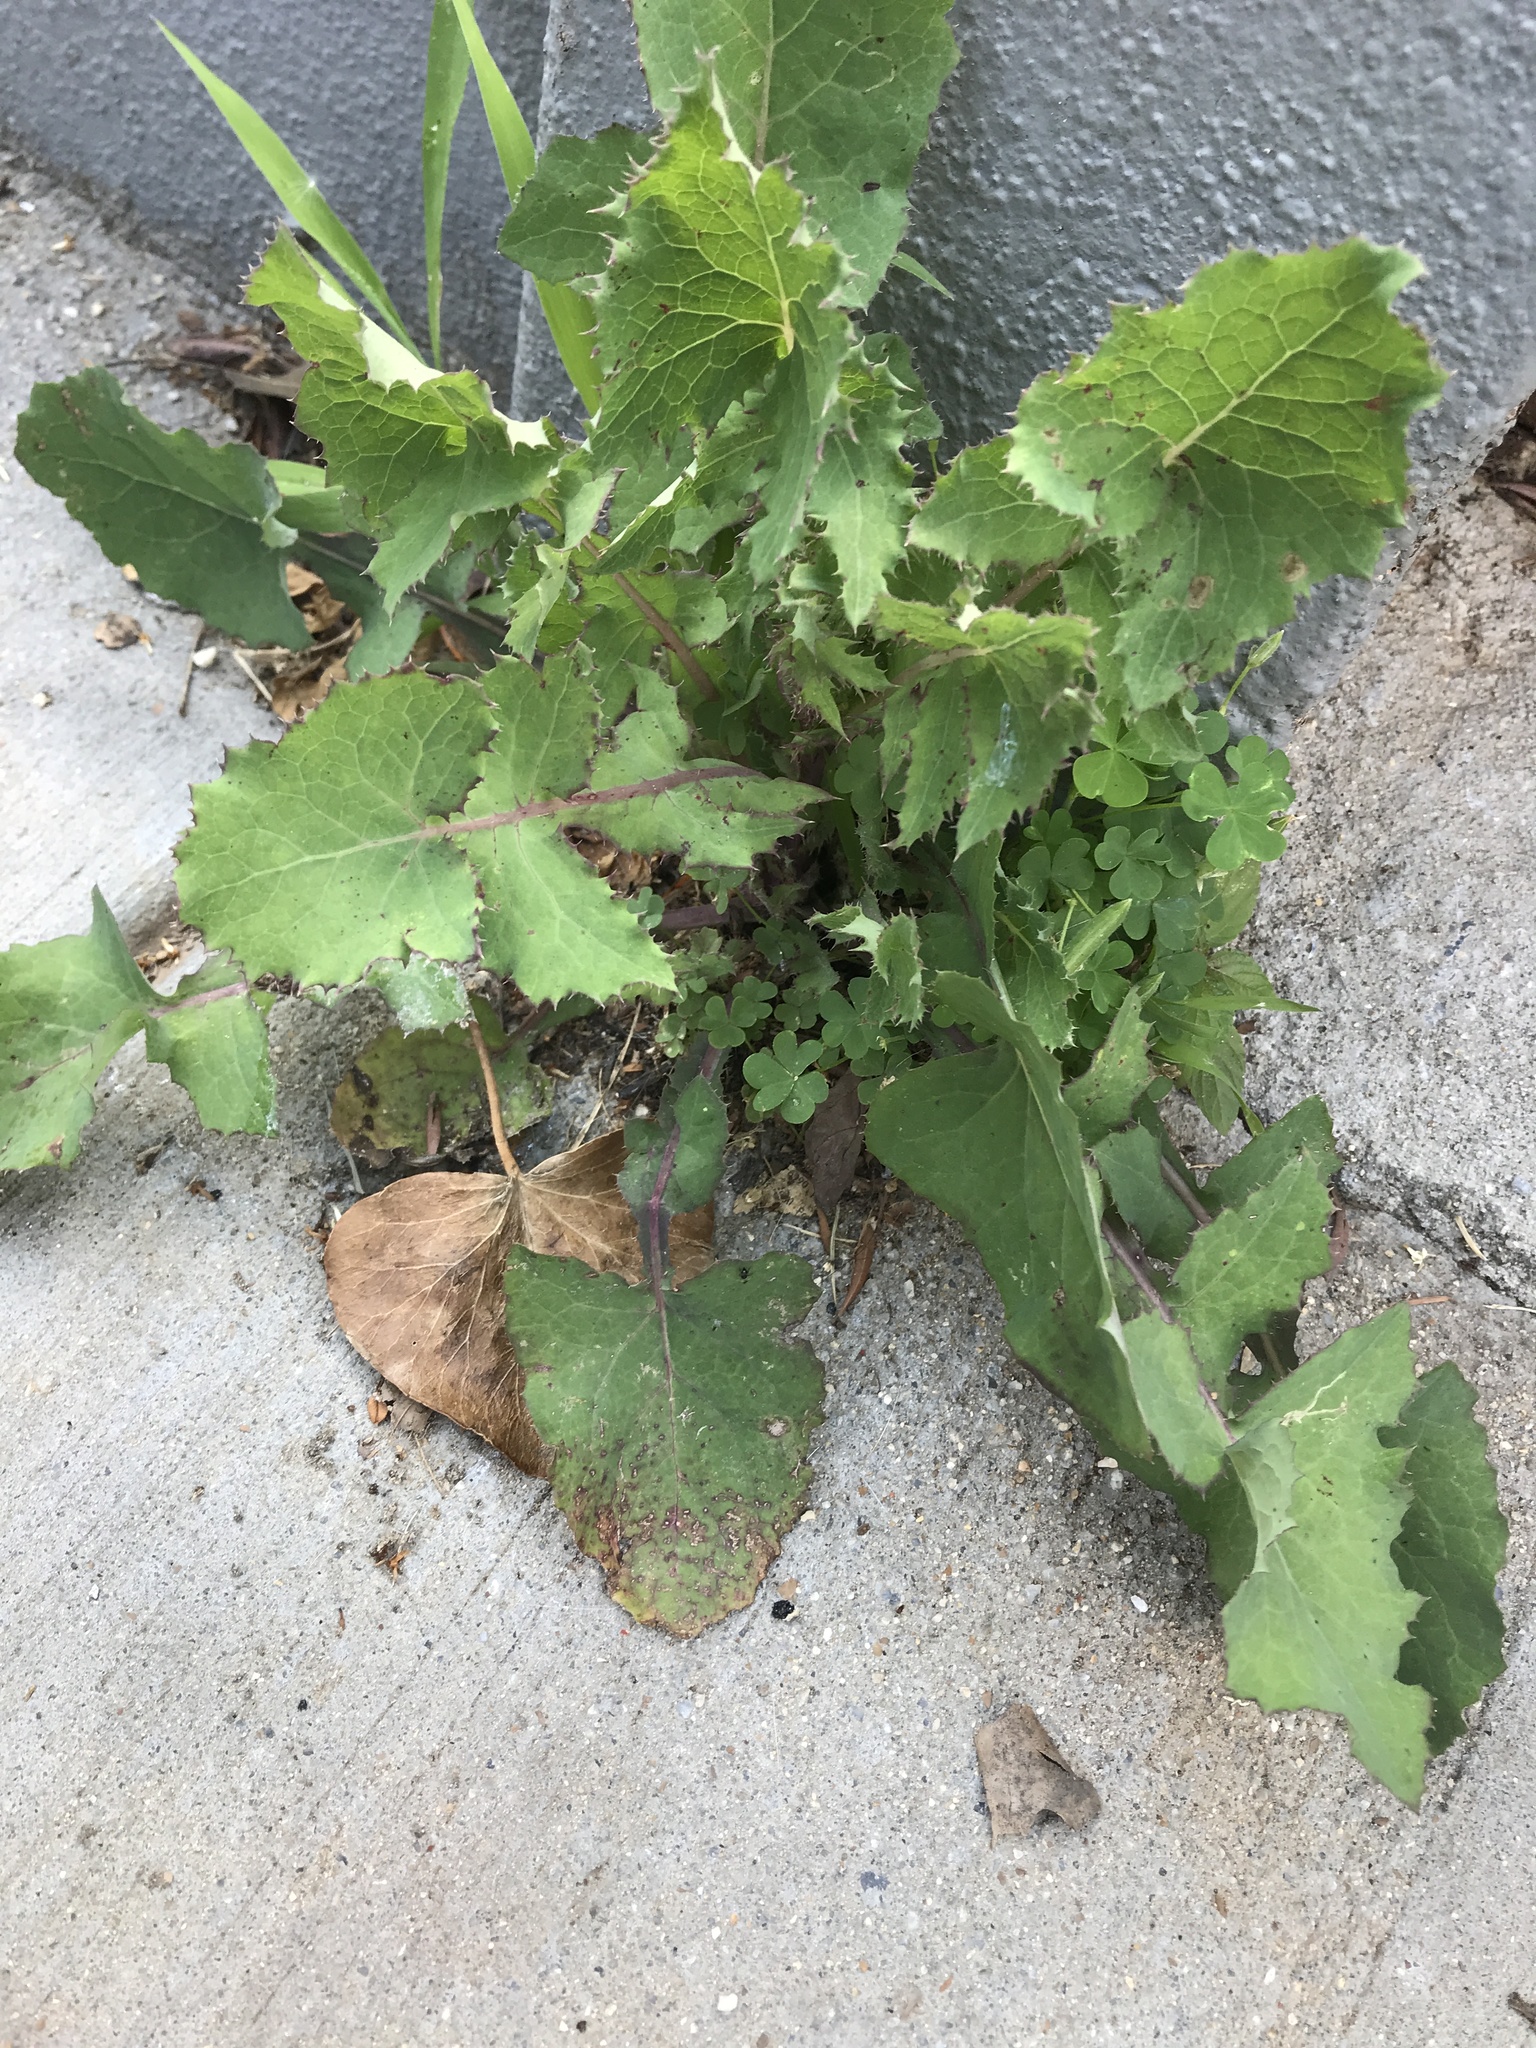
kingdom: Plantae
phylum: Tracheophyta
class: Magnoliopsida
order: Asterales
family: Asteraceae
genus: Sonchus
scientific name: Sonchus oleraceus
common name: Common sowthistle
